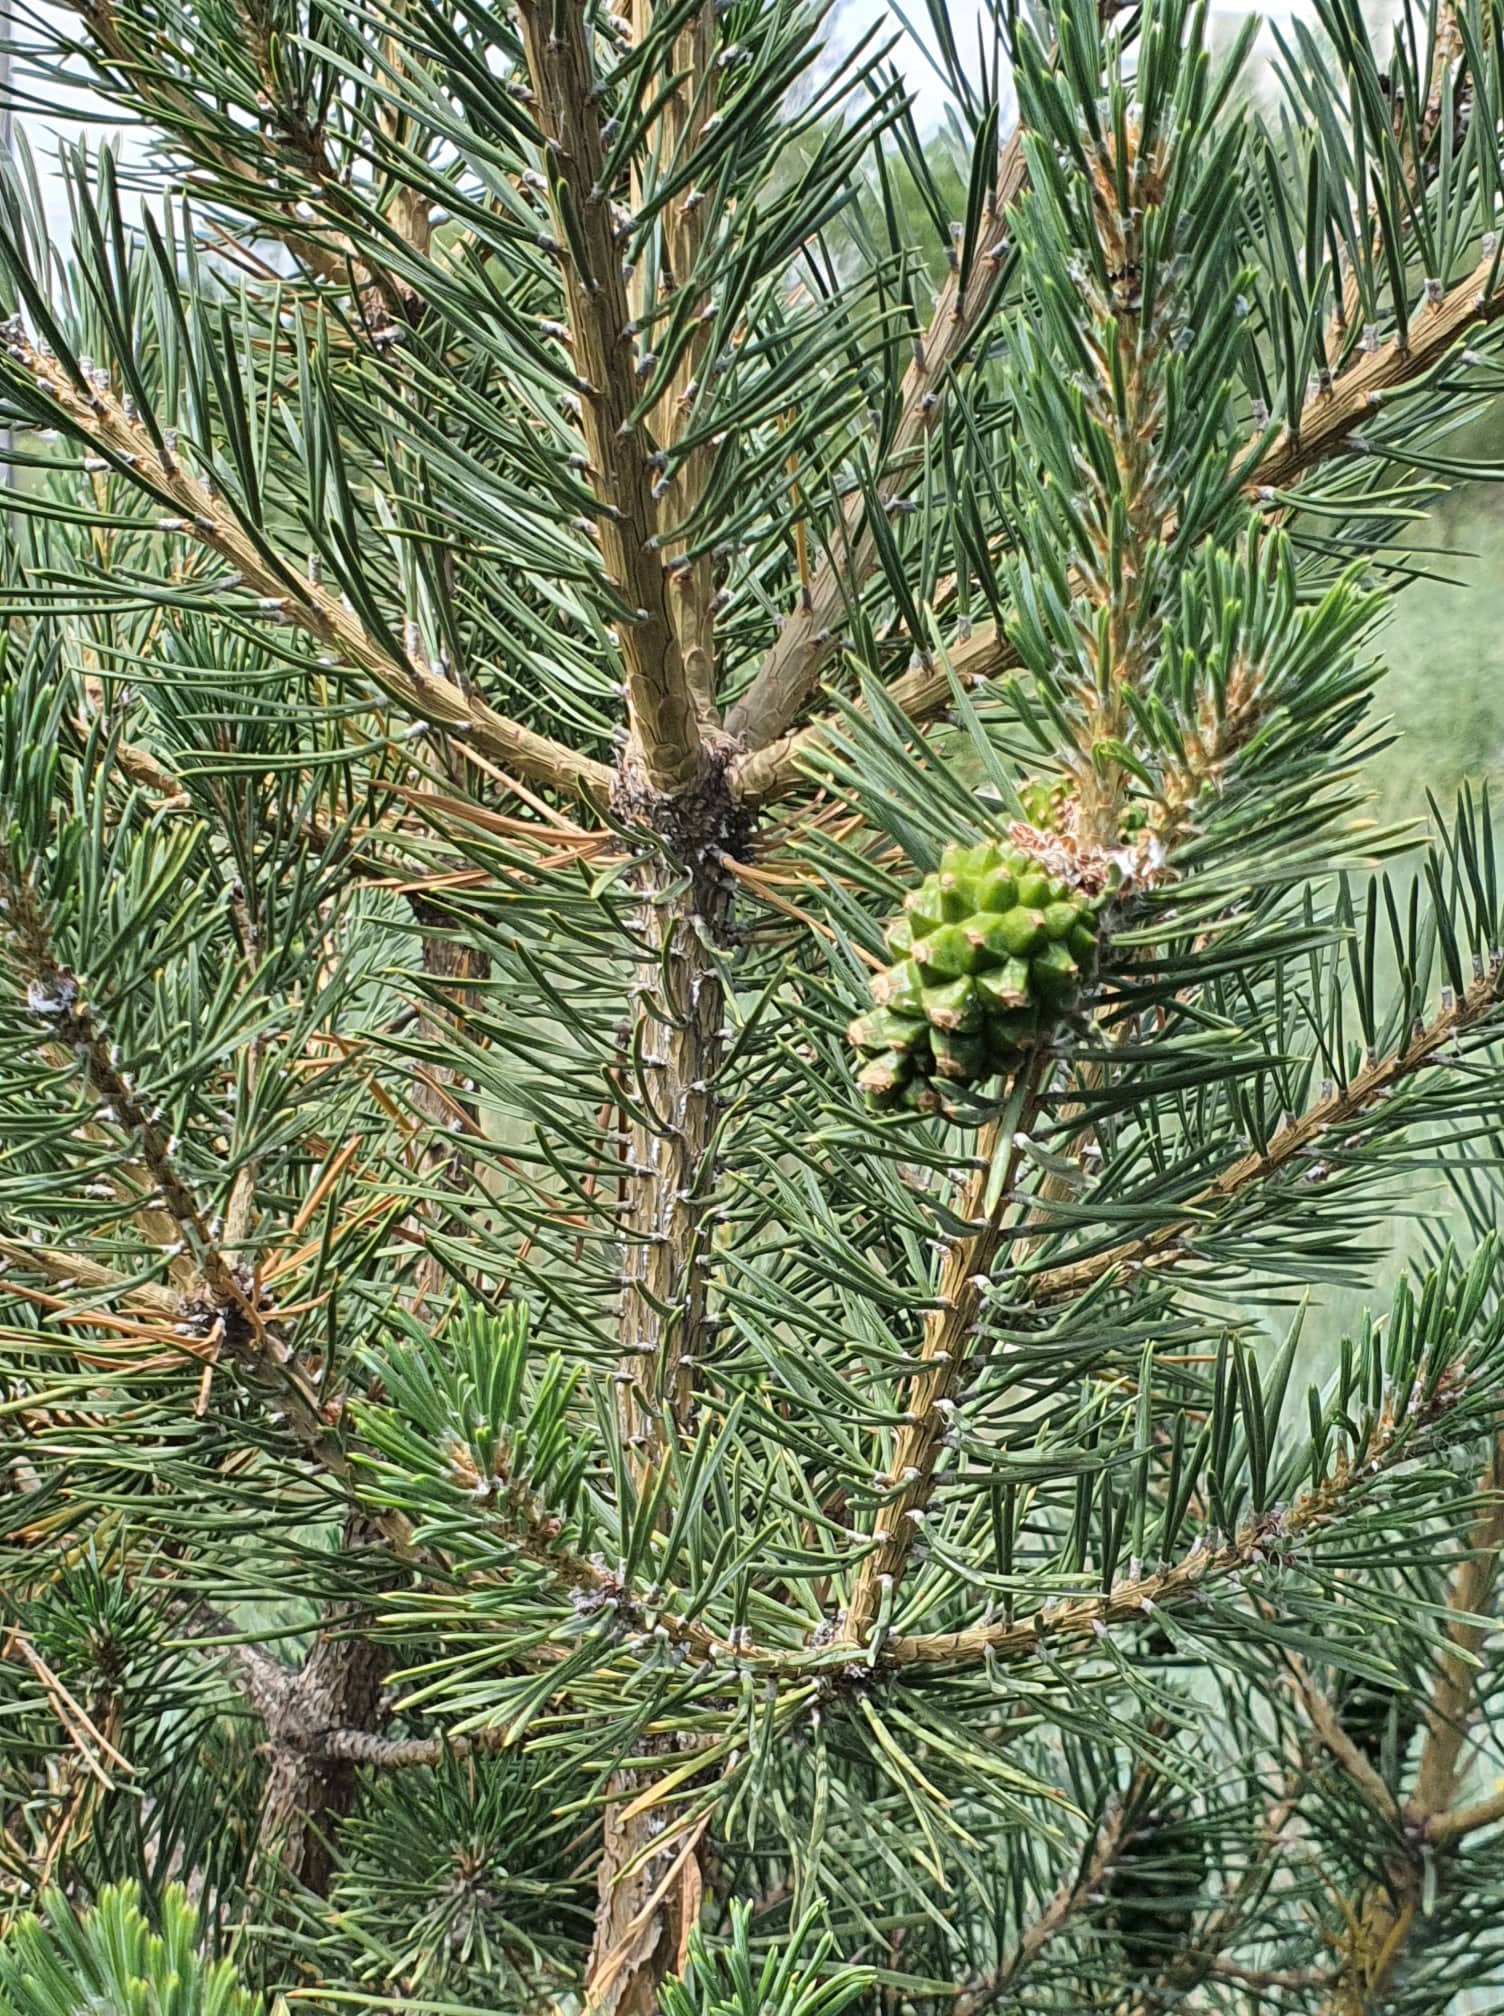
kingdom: Plantae
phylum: Tracheophyta
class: Pinopsida
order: Pinales
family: Pinaceae
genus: Pinus
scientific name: Pinus sylvestris
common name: Scots pine
